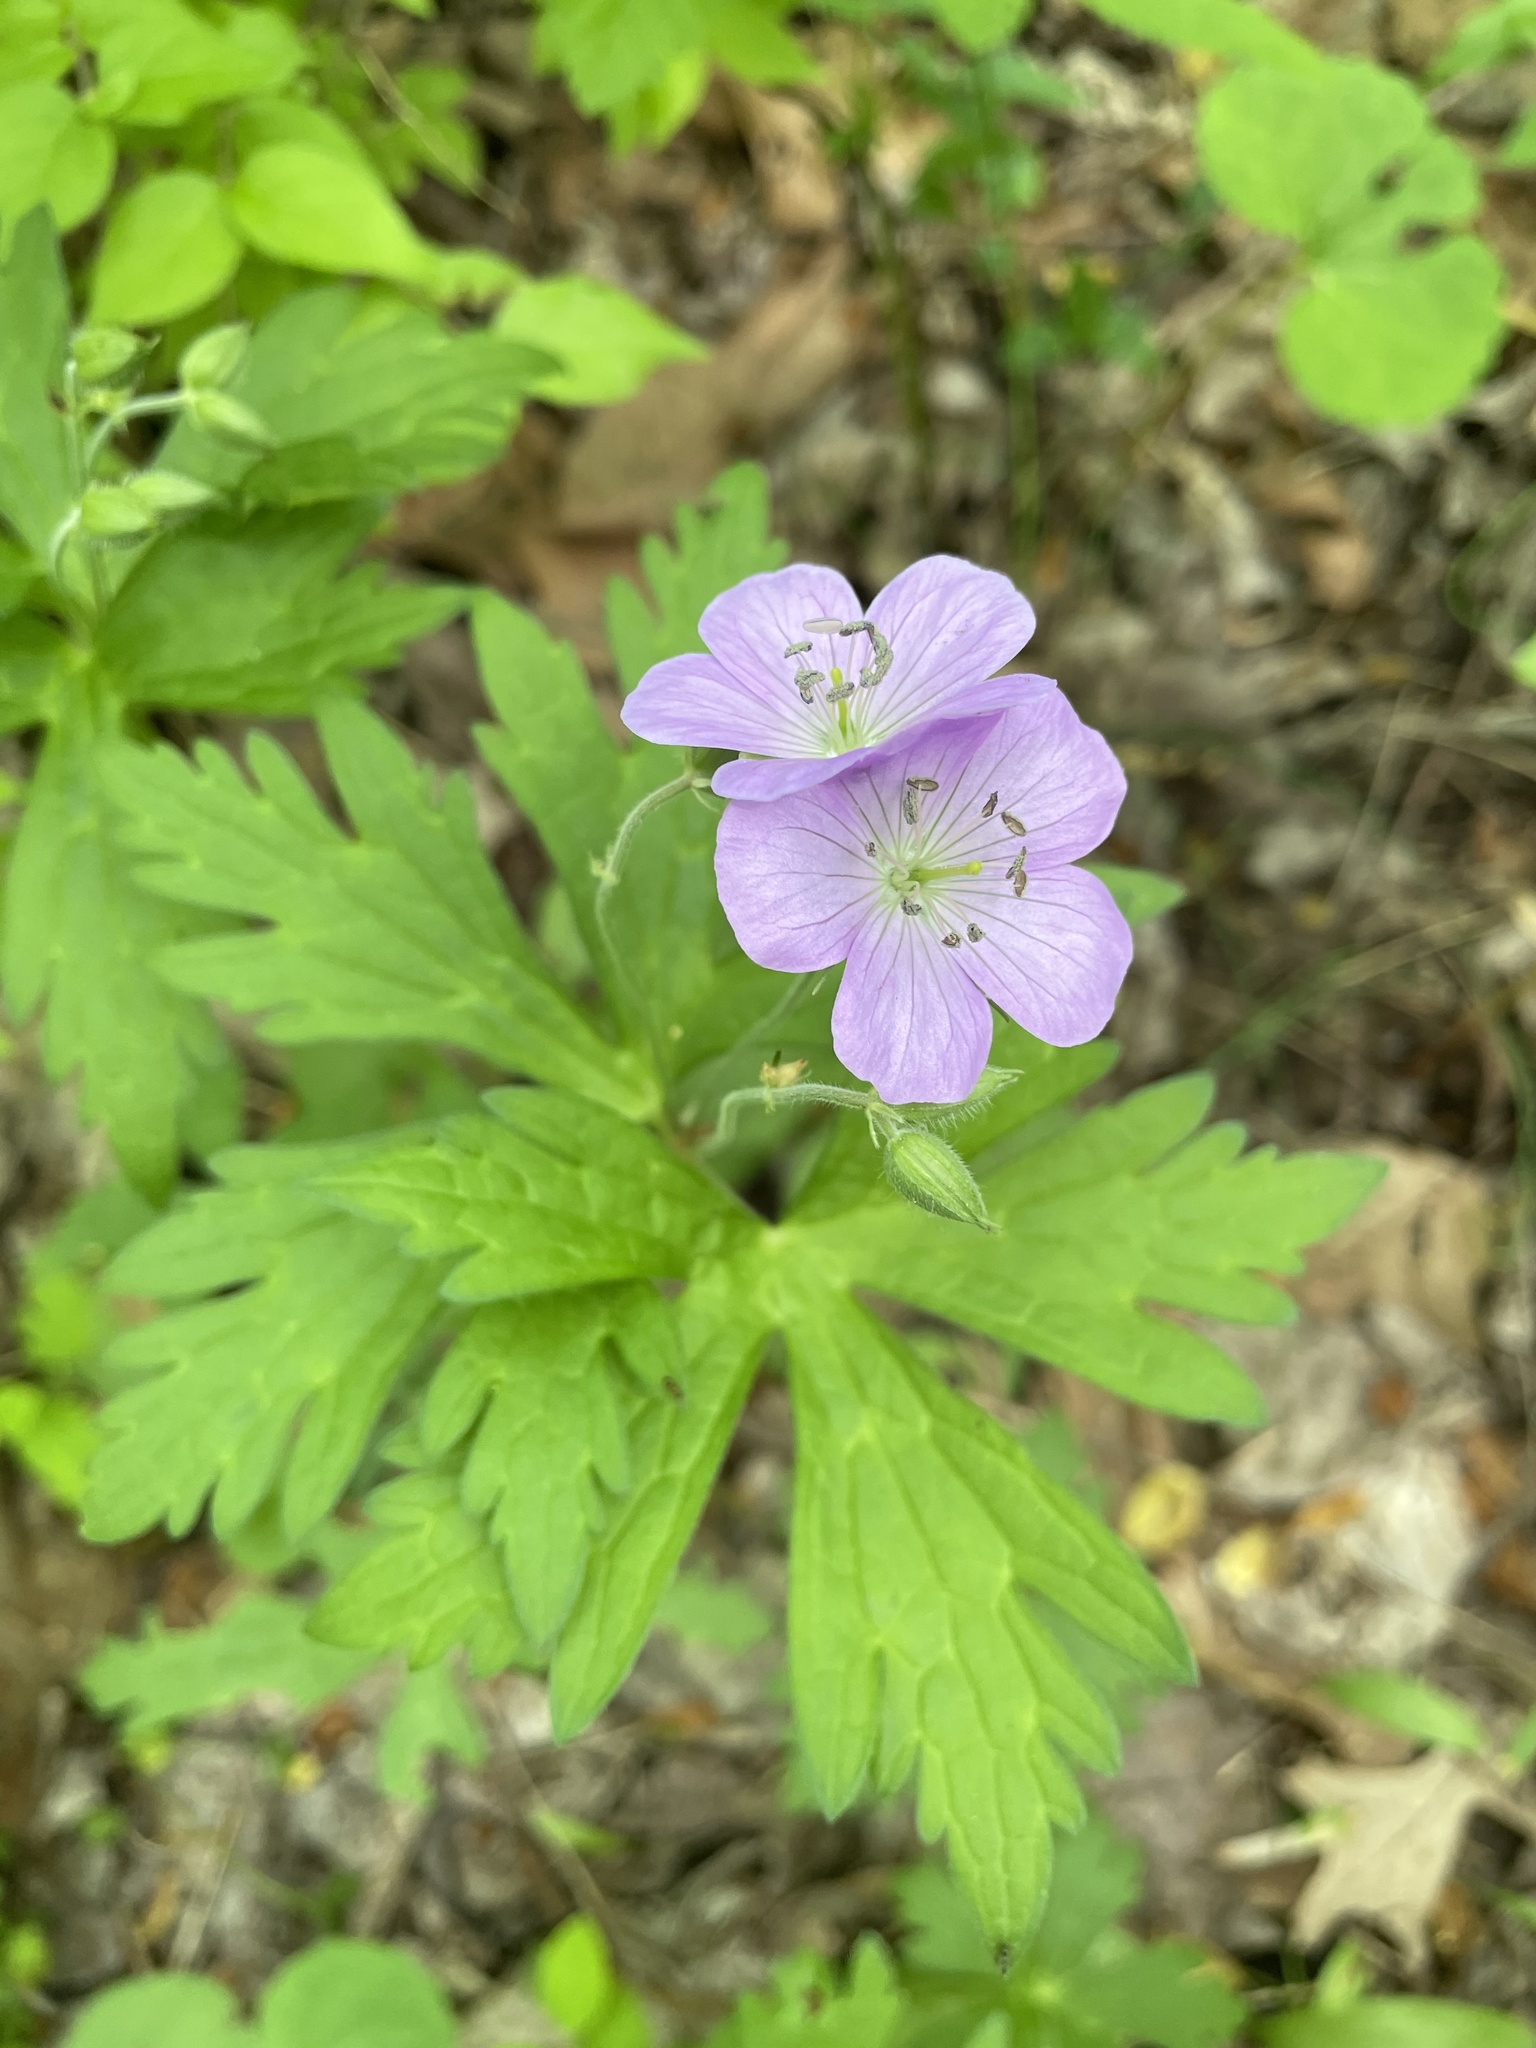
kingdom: Plantae
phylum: Tracheophyta
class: Magnoliopsida
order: Geraniales
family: Geraniaceae
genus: Geranium
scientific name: Geranium maculatum
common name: Spotted geranium
